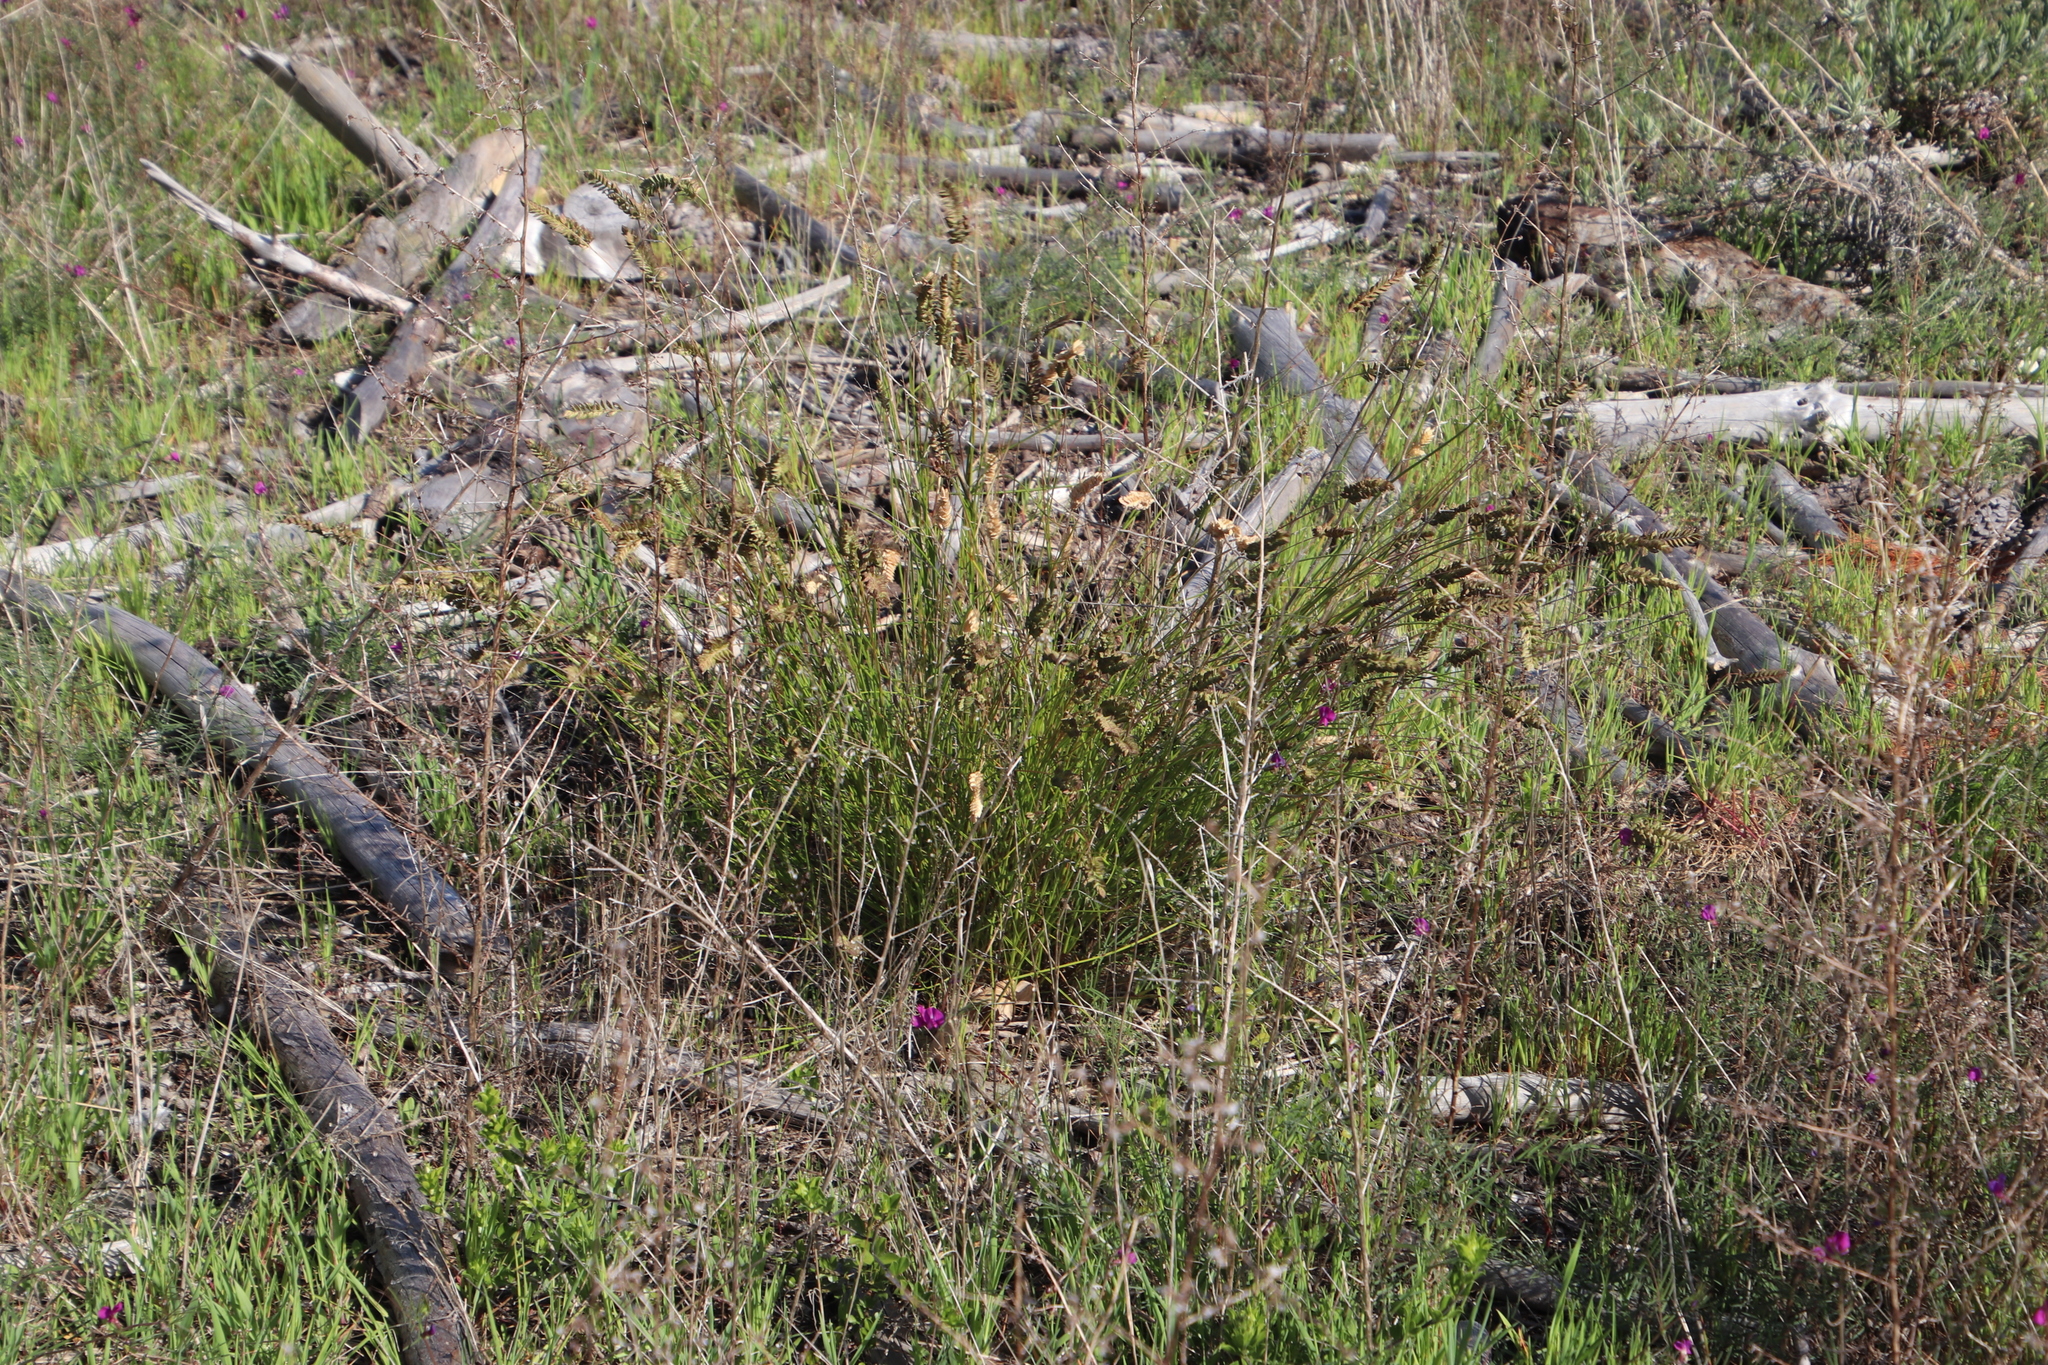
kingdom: Plantae
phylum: Tracheophyta
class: Liliopsida
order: Poales
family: Poaceae
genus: Tribolium
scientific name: Tribolium uniolae
